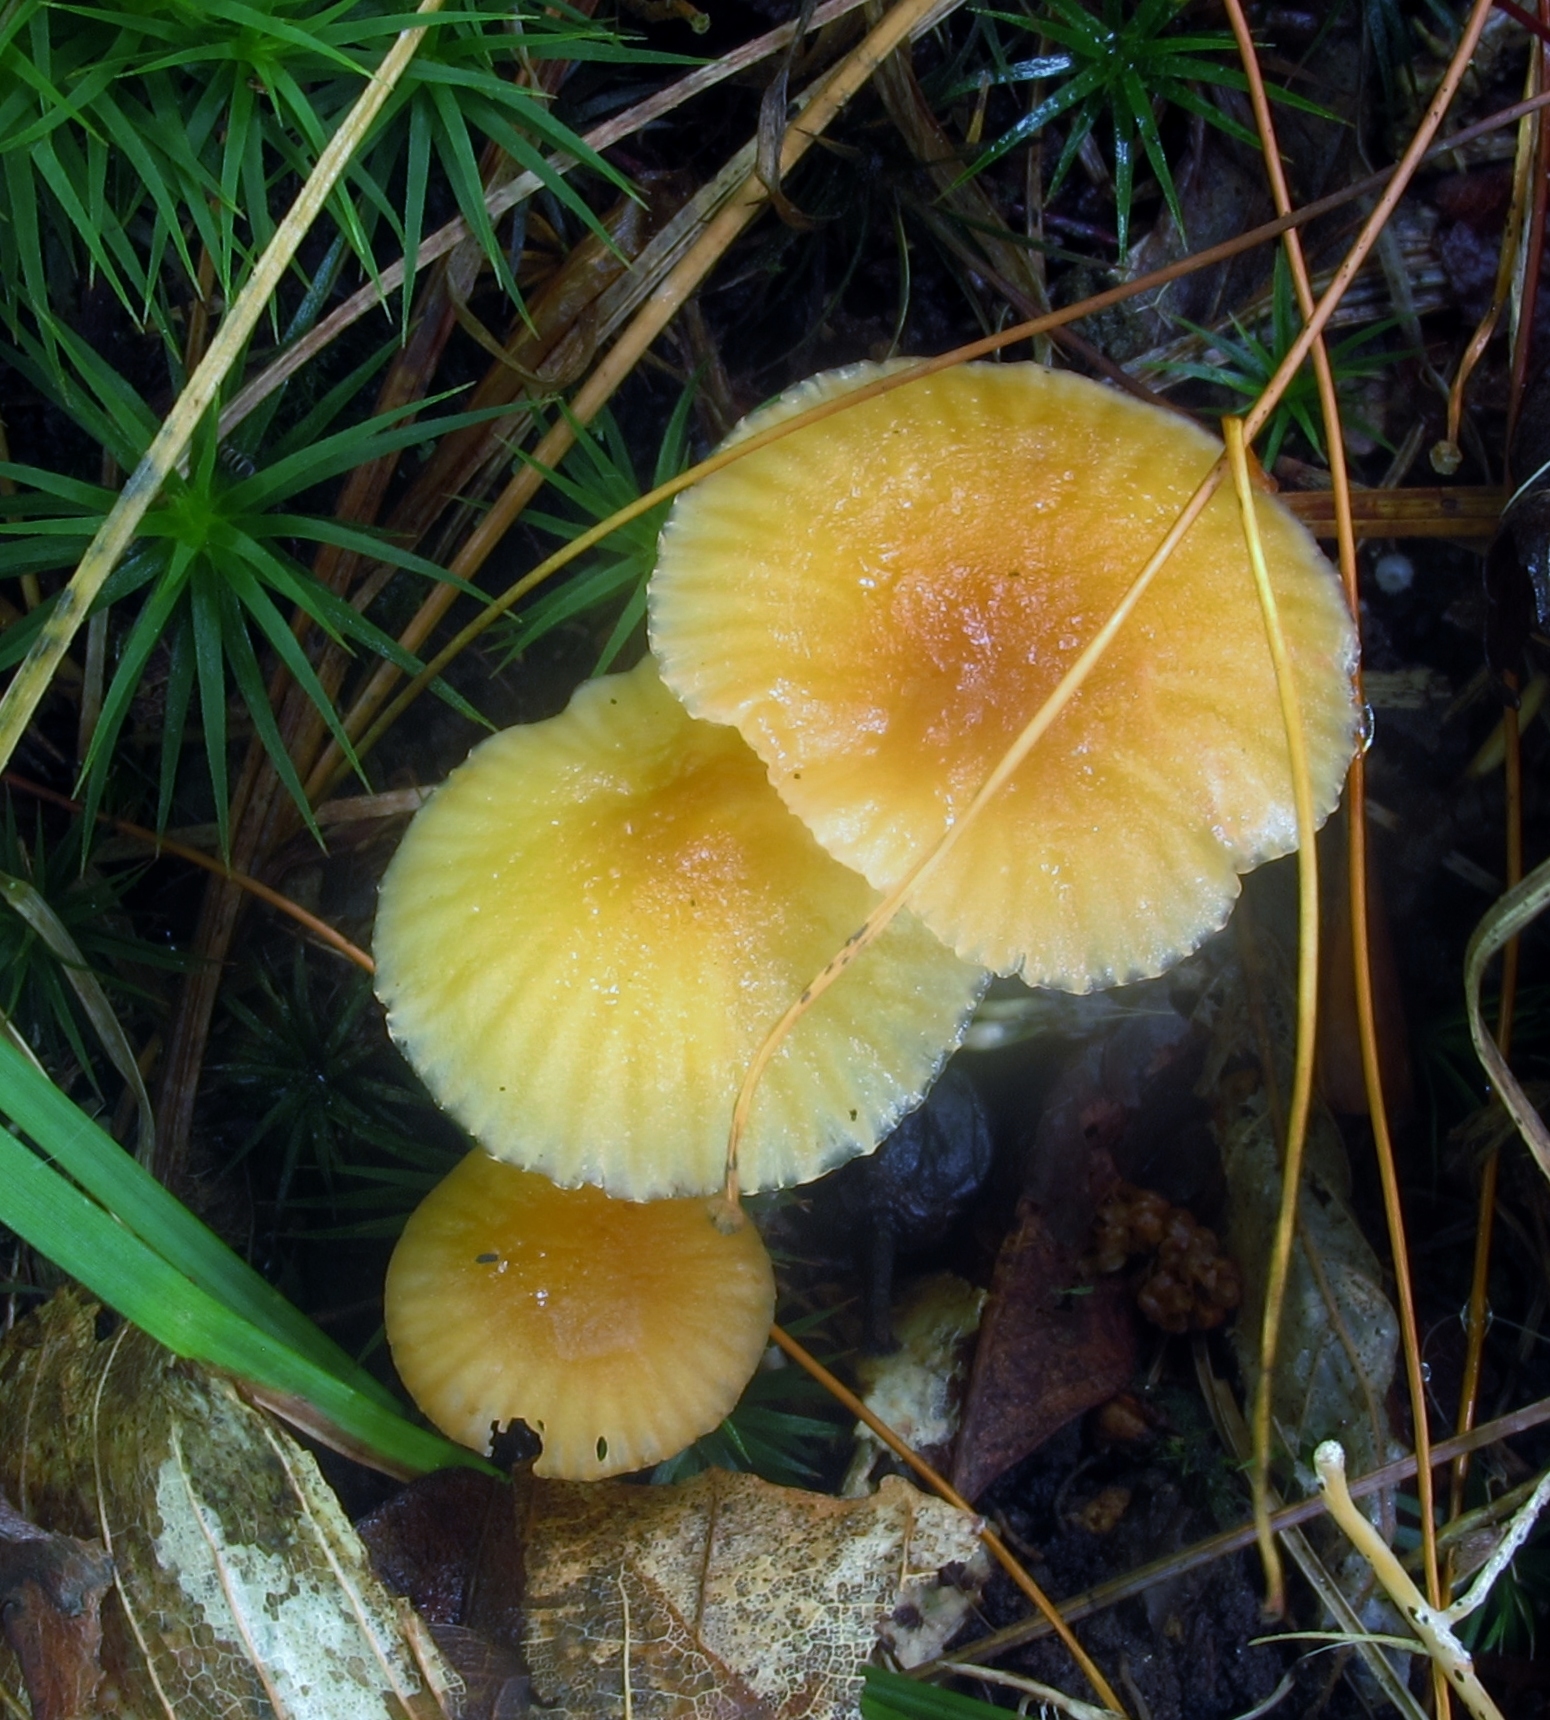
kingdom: Fungi
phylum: Basidiomycota
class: Agaricomycetes
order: Agaricales
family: Hygrophoraceae
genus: Gliophorus
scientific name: Gliophorus laetus
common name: Heath waxcap
